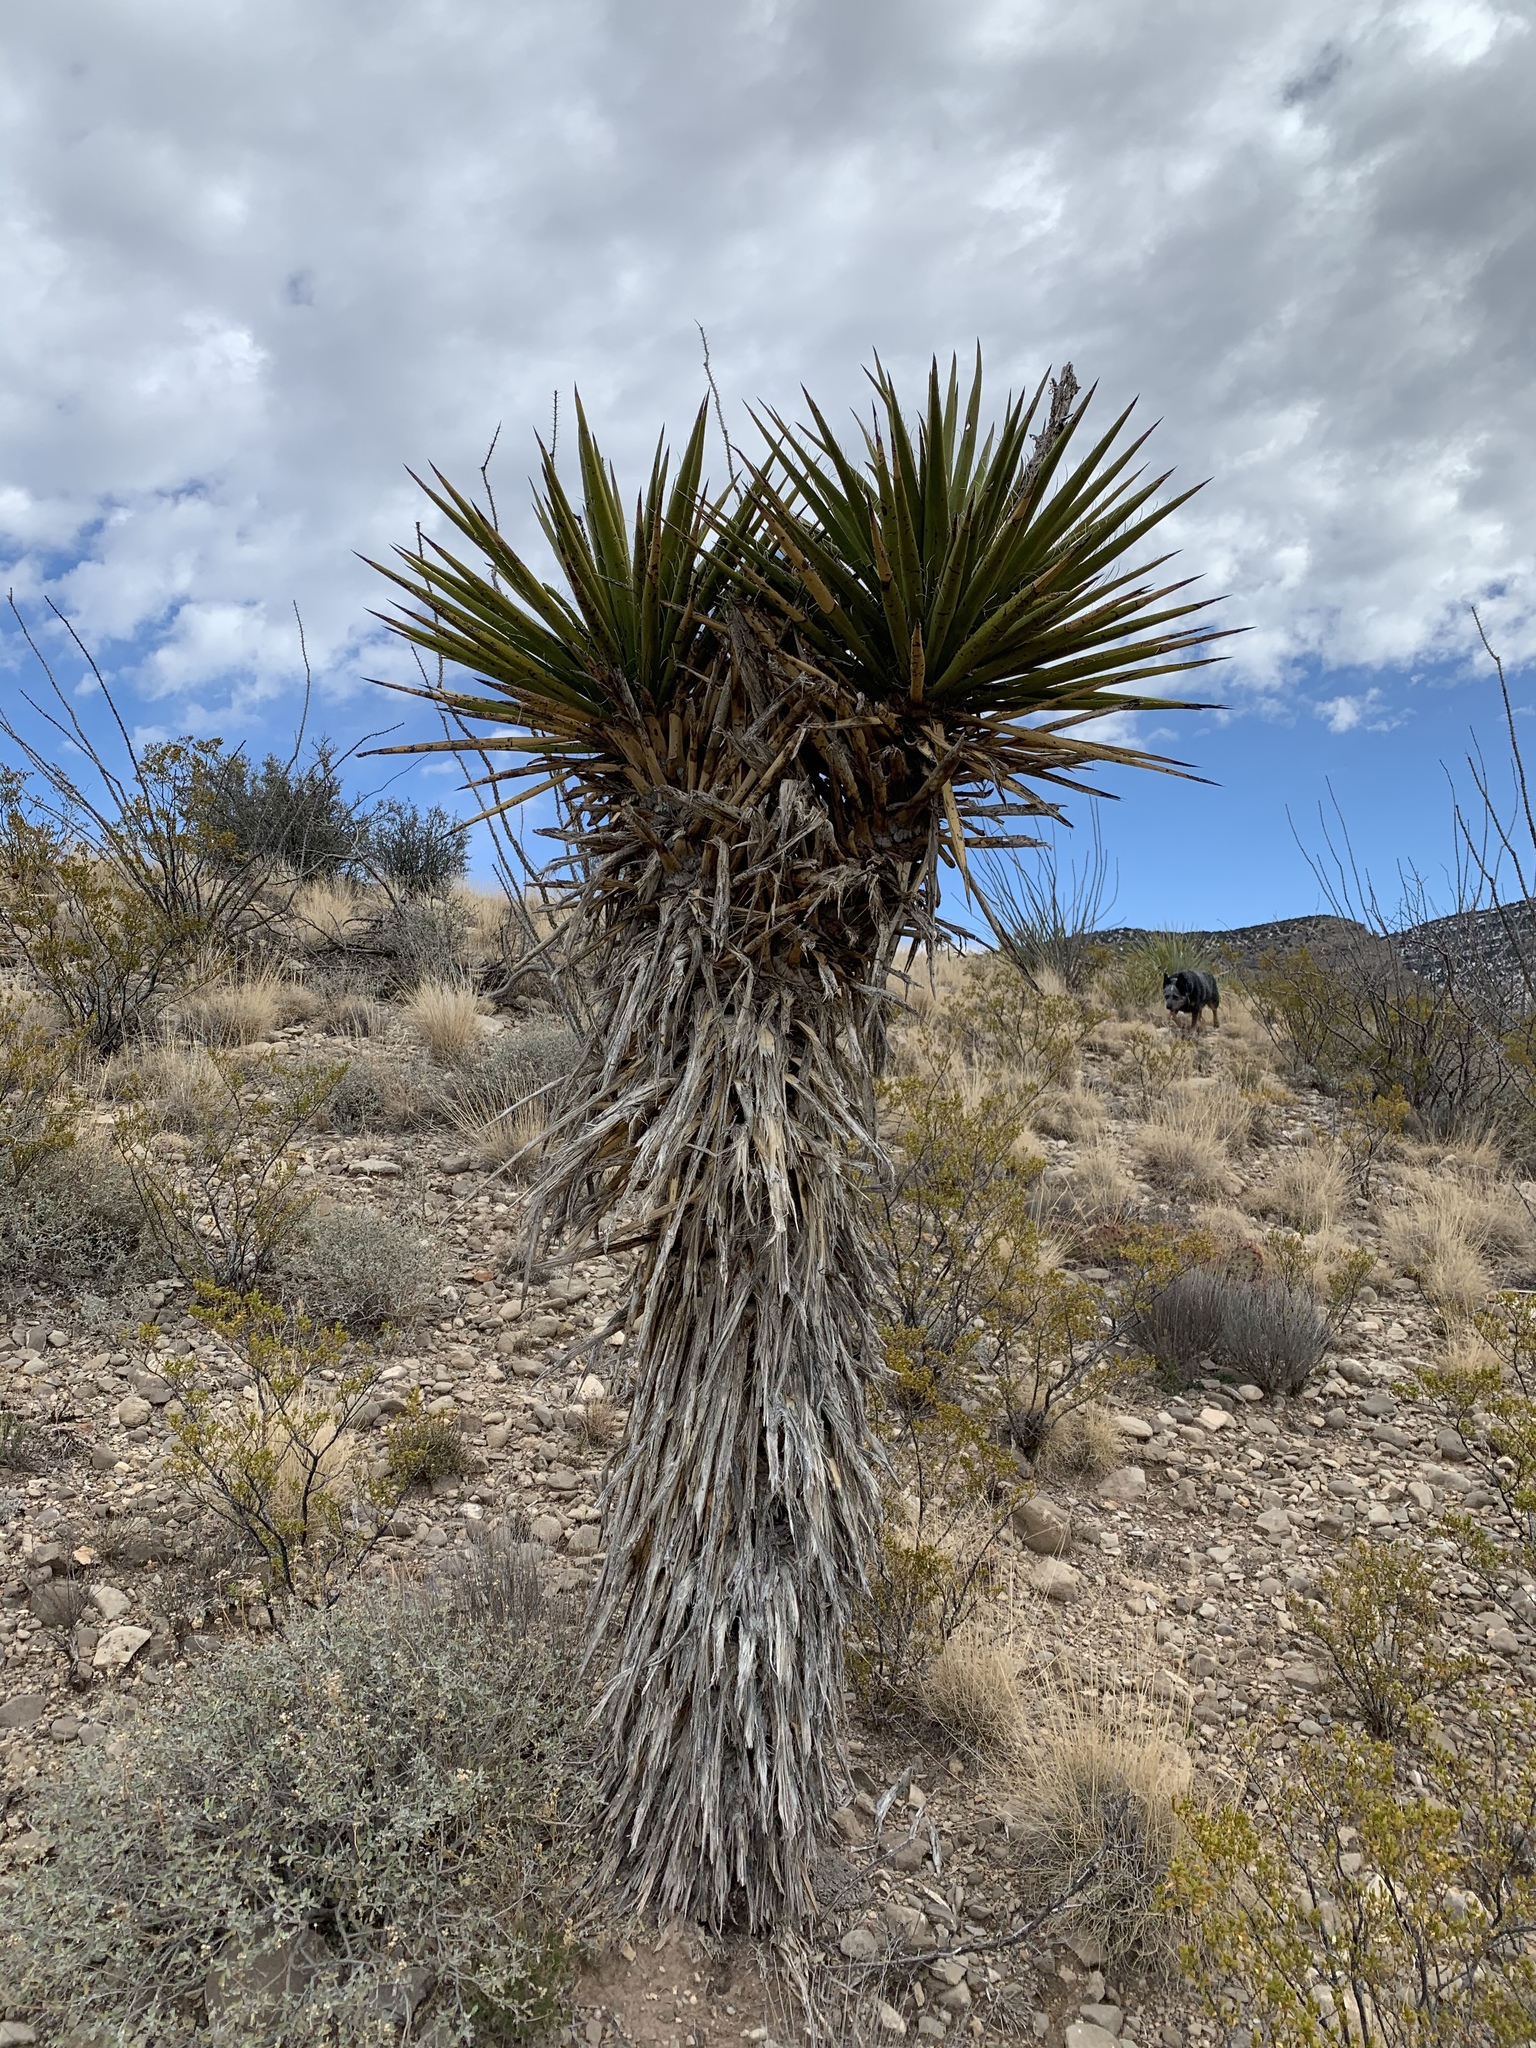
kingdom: Plantae
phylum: Tracheophyta
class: Liliopsida
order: Asparagales
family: Asparagaceae
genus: Yucca
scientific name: Yucca treculiana
